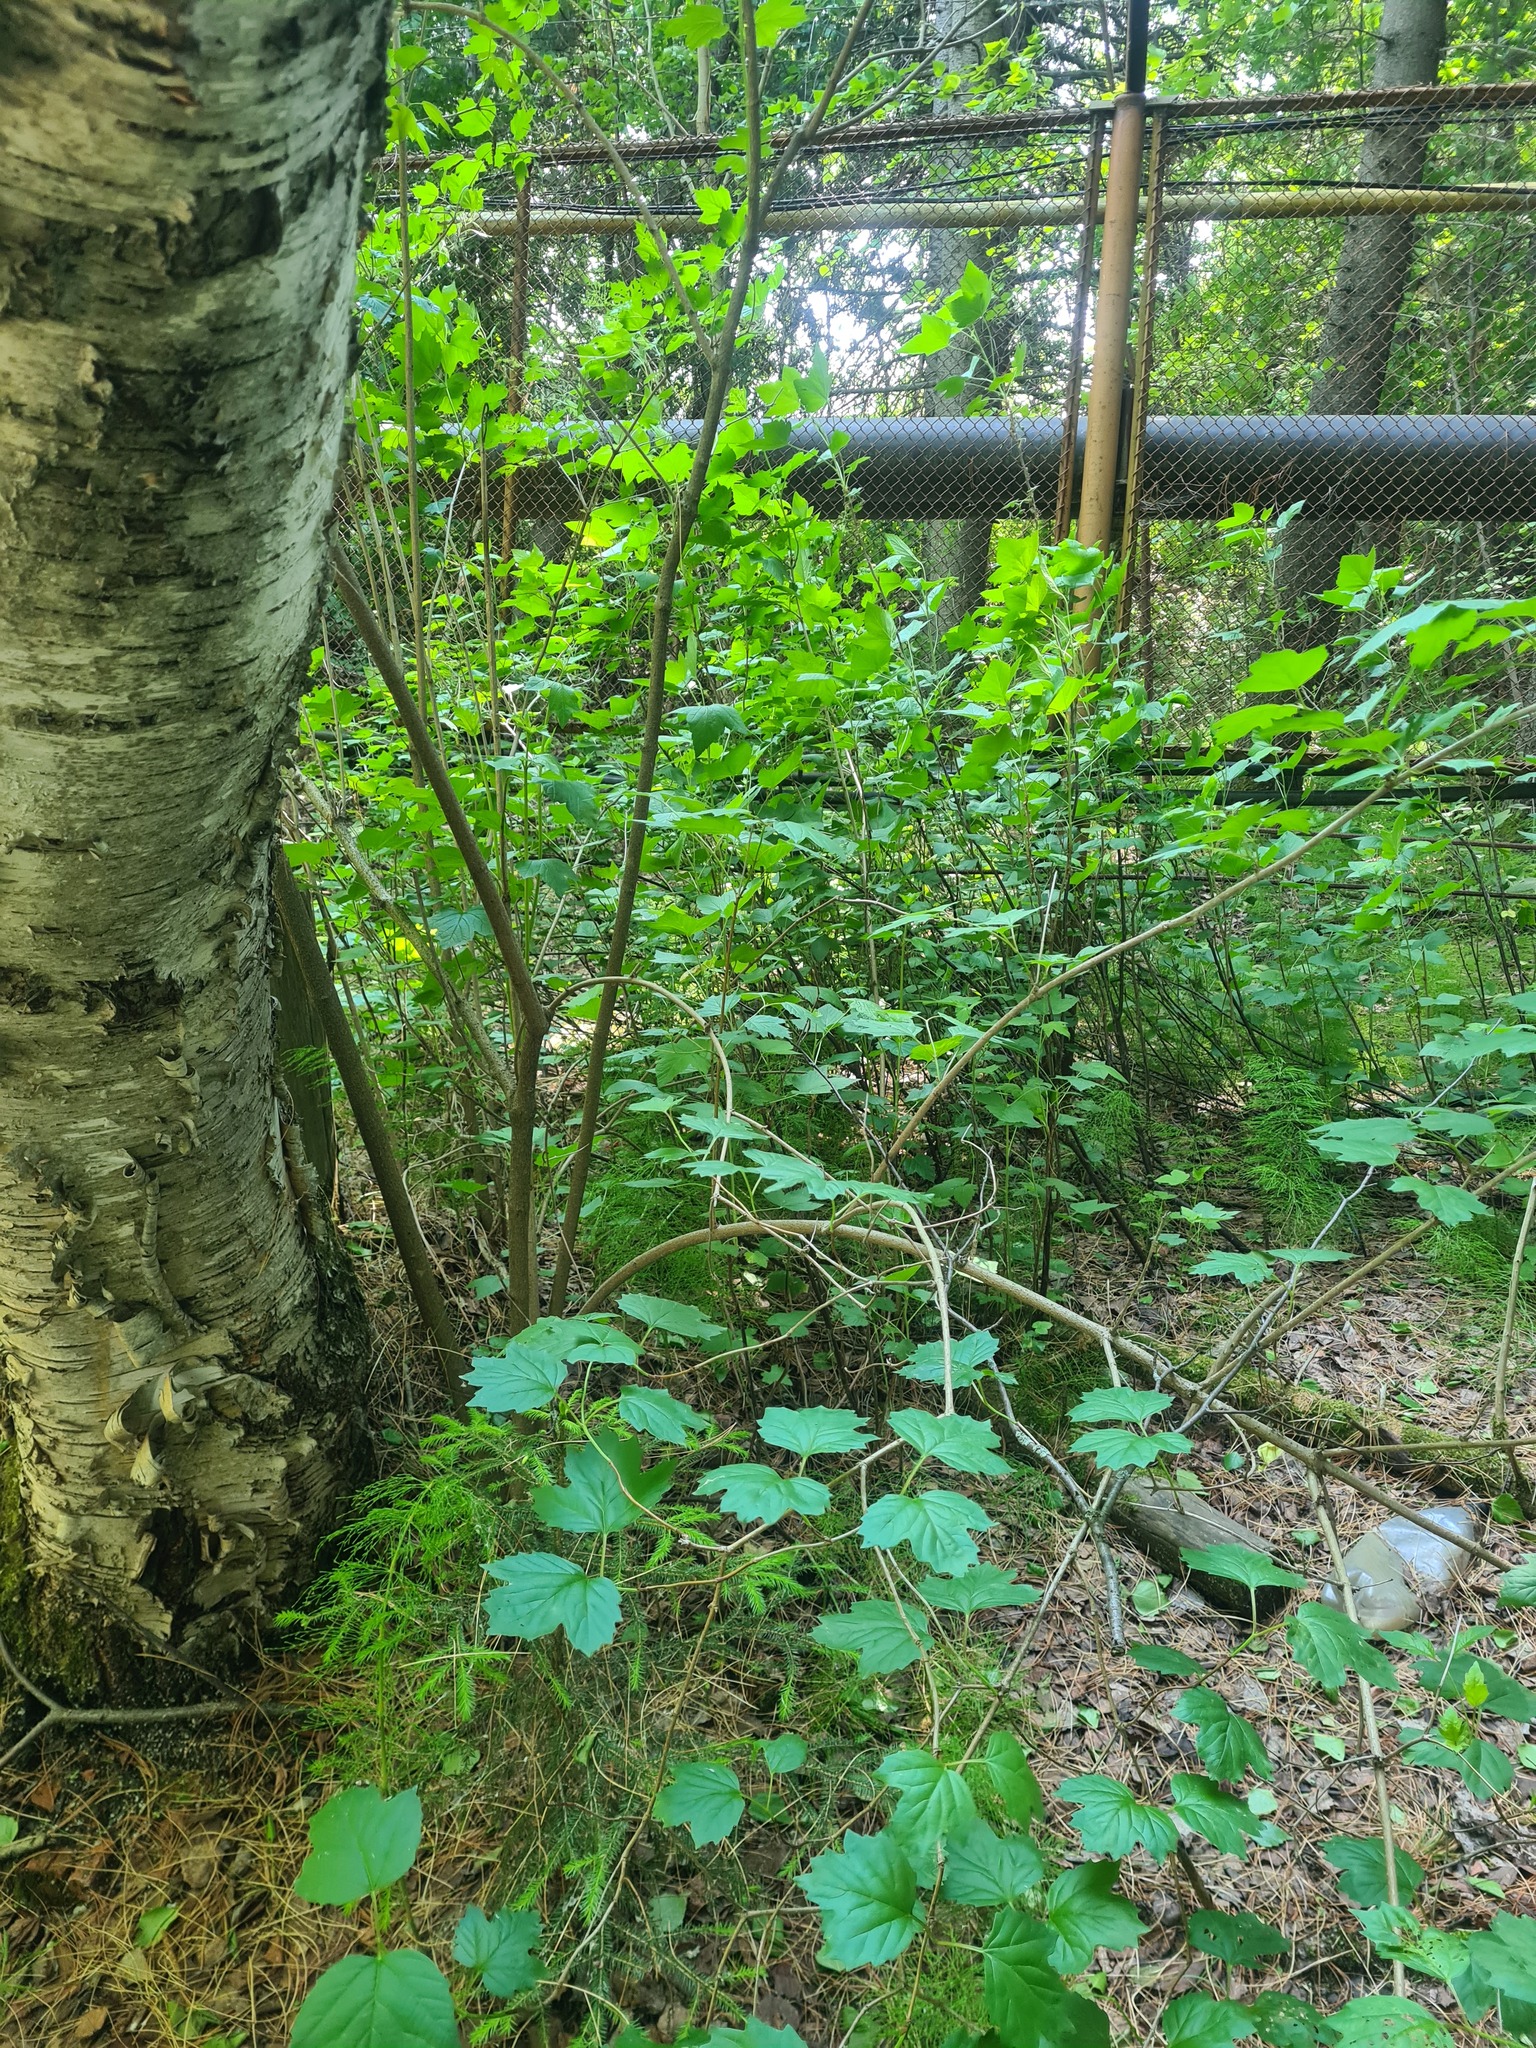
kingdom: Plantae
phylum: Tracheophyta
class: Magnoliopsida
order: Dipsacales
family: Viburnaceae
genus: Viburnum
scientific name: Viburnum opulus
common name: Guelder-rose
